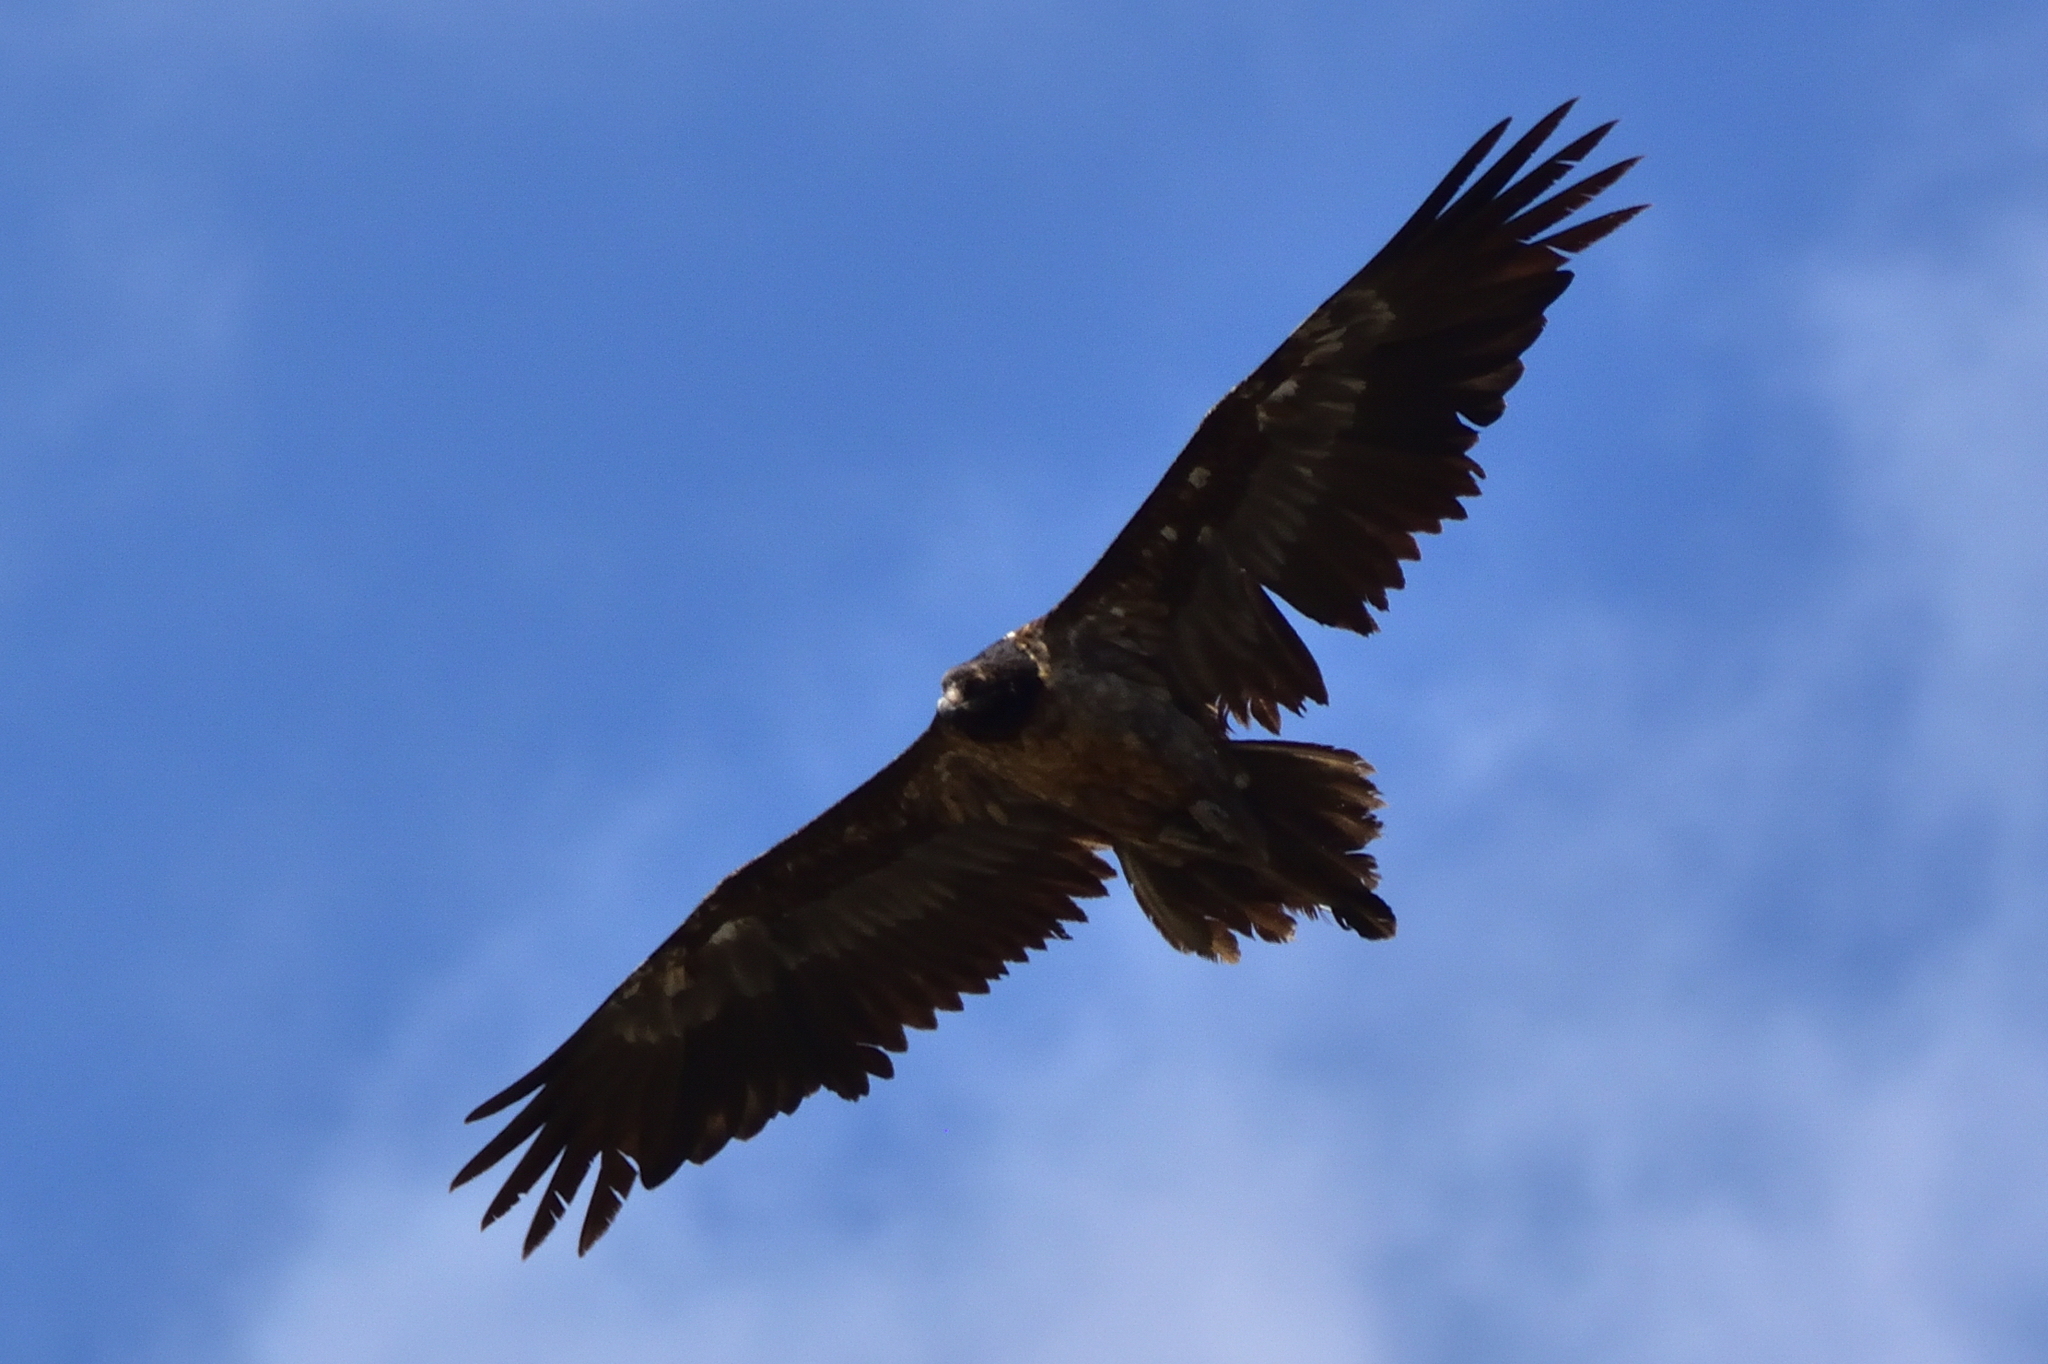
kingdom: Animalia
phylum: Chordata
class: Aves
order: Accipitriformes
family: Accipitridae
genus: Gypaetus
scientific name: Gypaetus barbatus
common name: Bearded vulture
